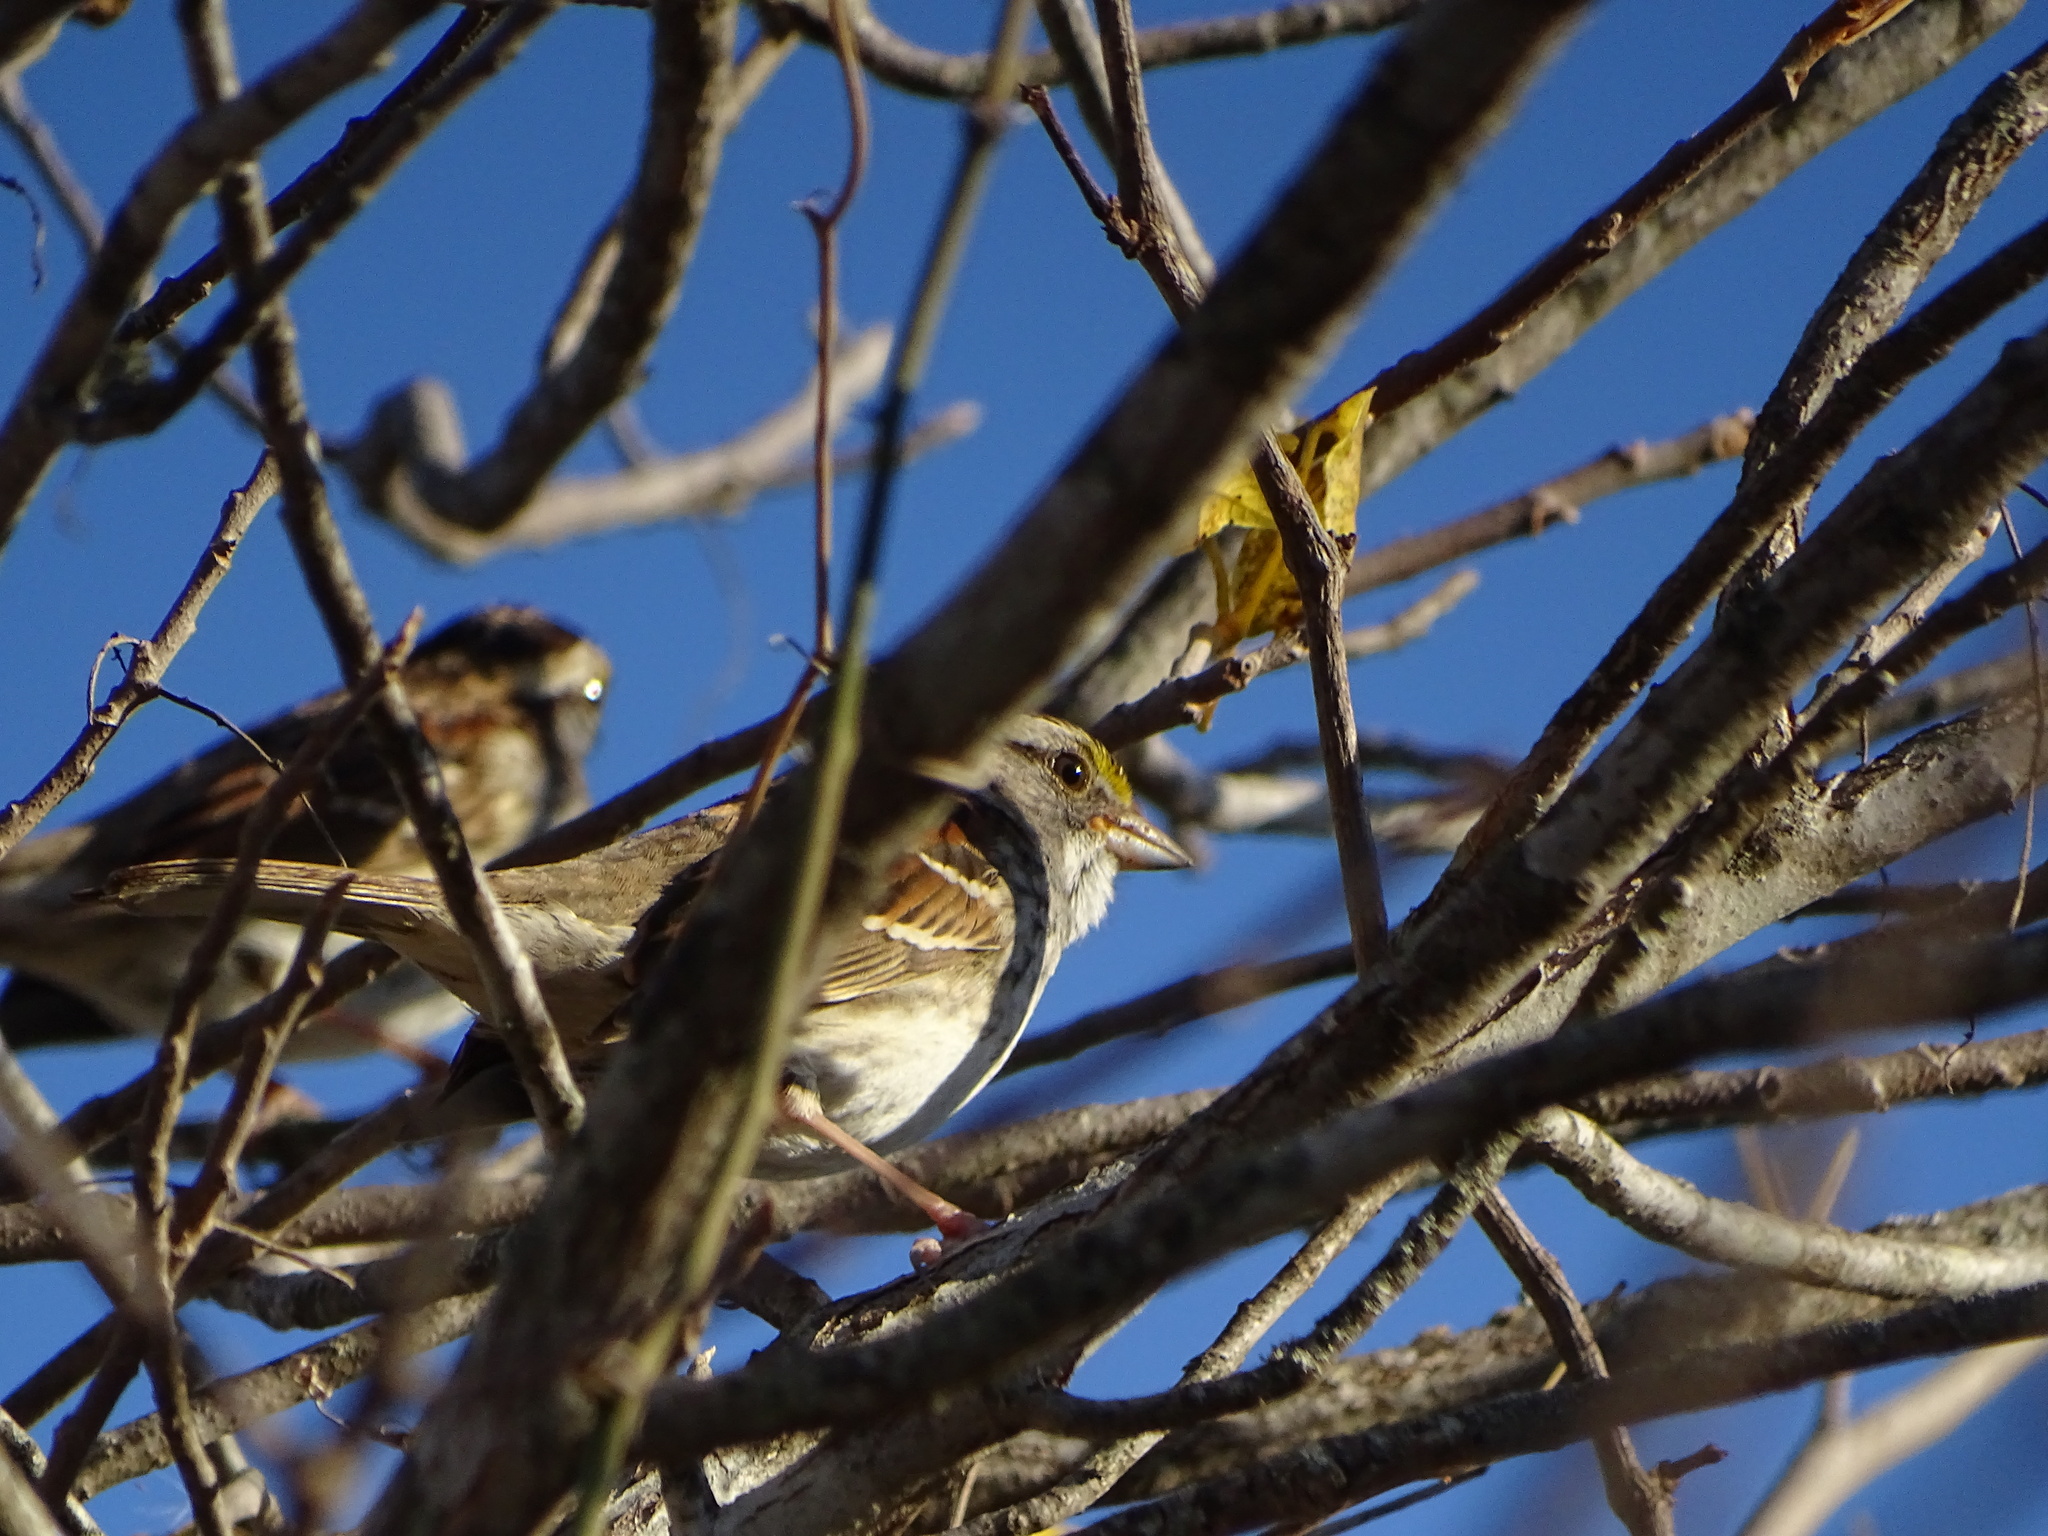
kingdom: Animalia
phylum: Chordata
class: Aves
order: Passeriformes
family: Passerellidae
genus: Zonotrichia
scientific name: Zonotrichia albicollis
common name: White-throated sparrow
